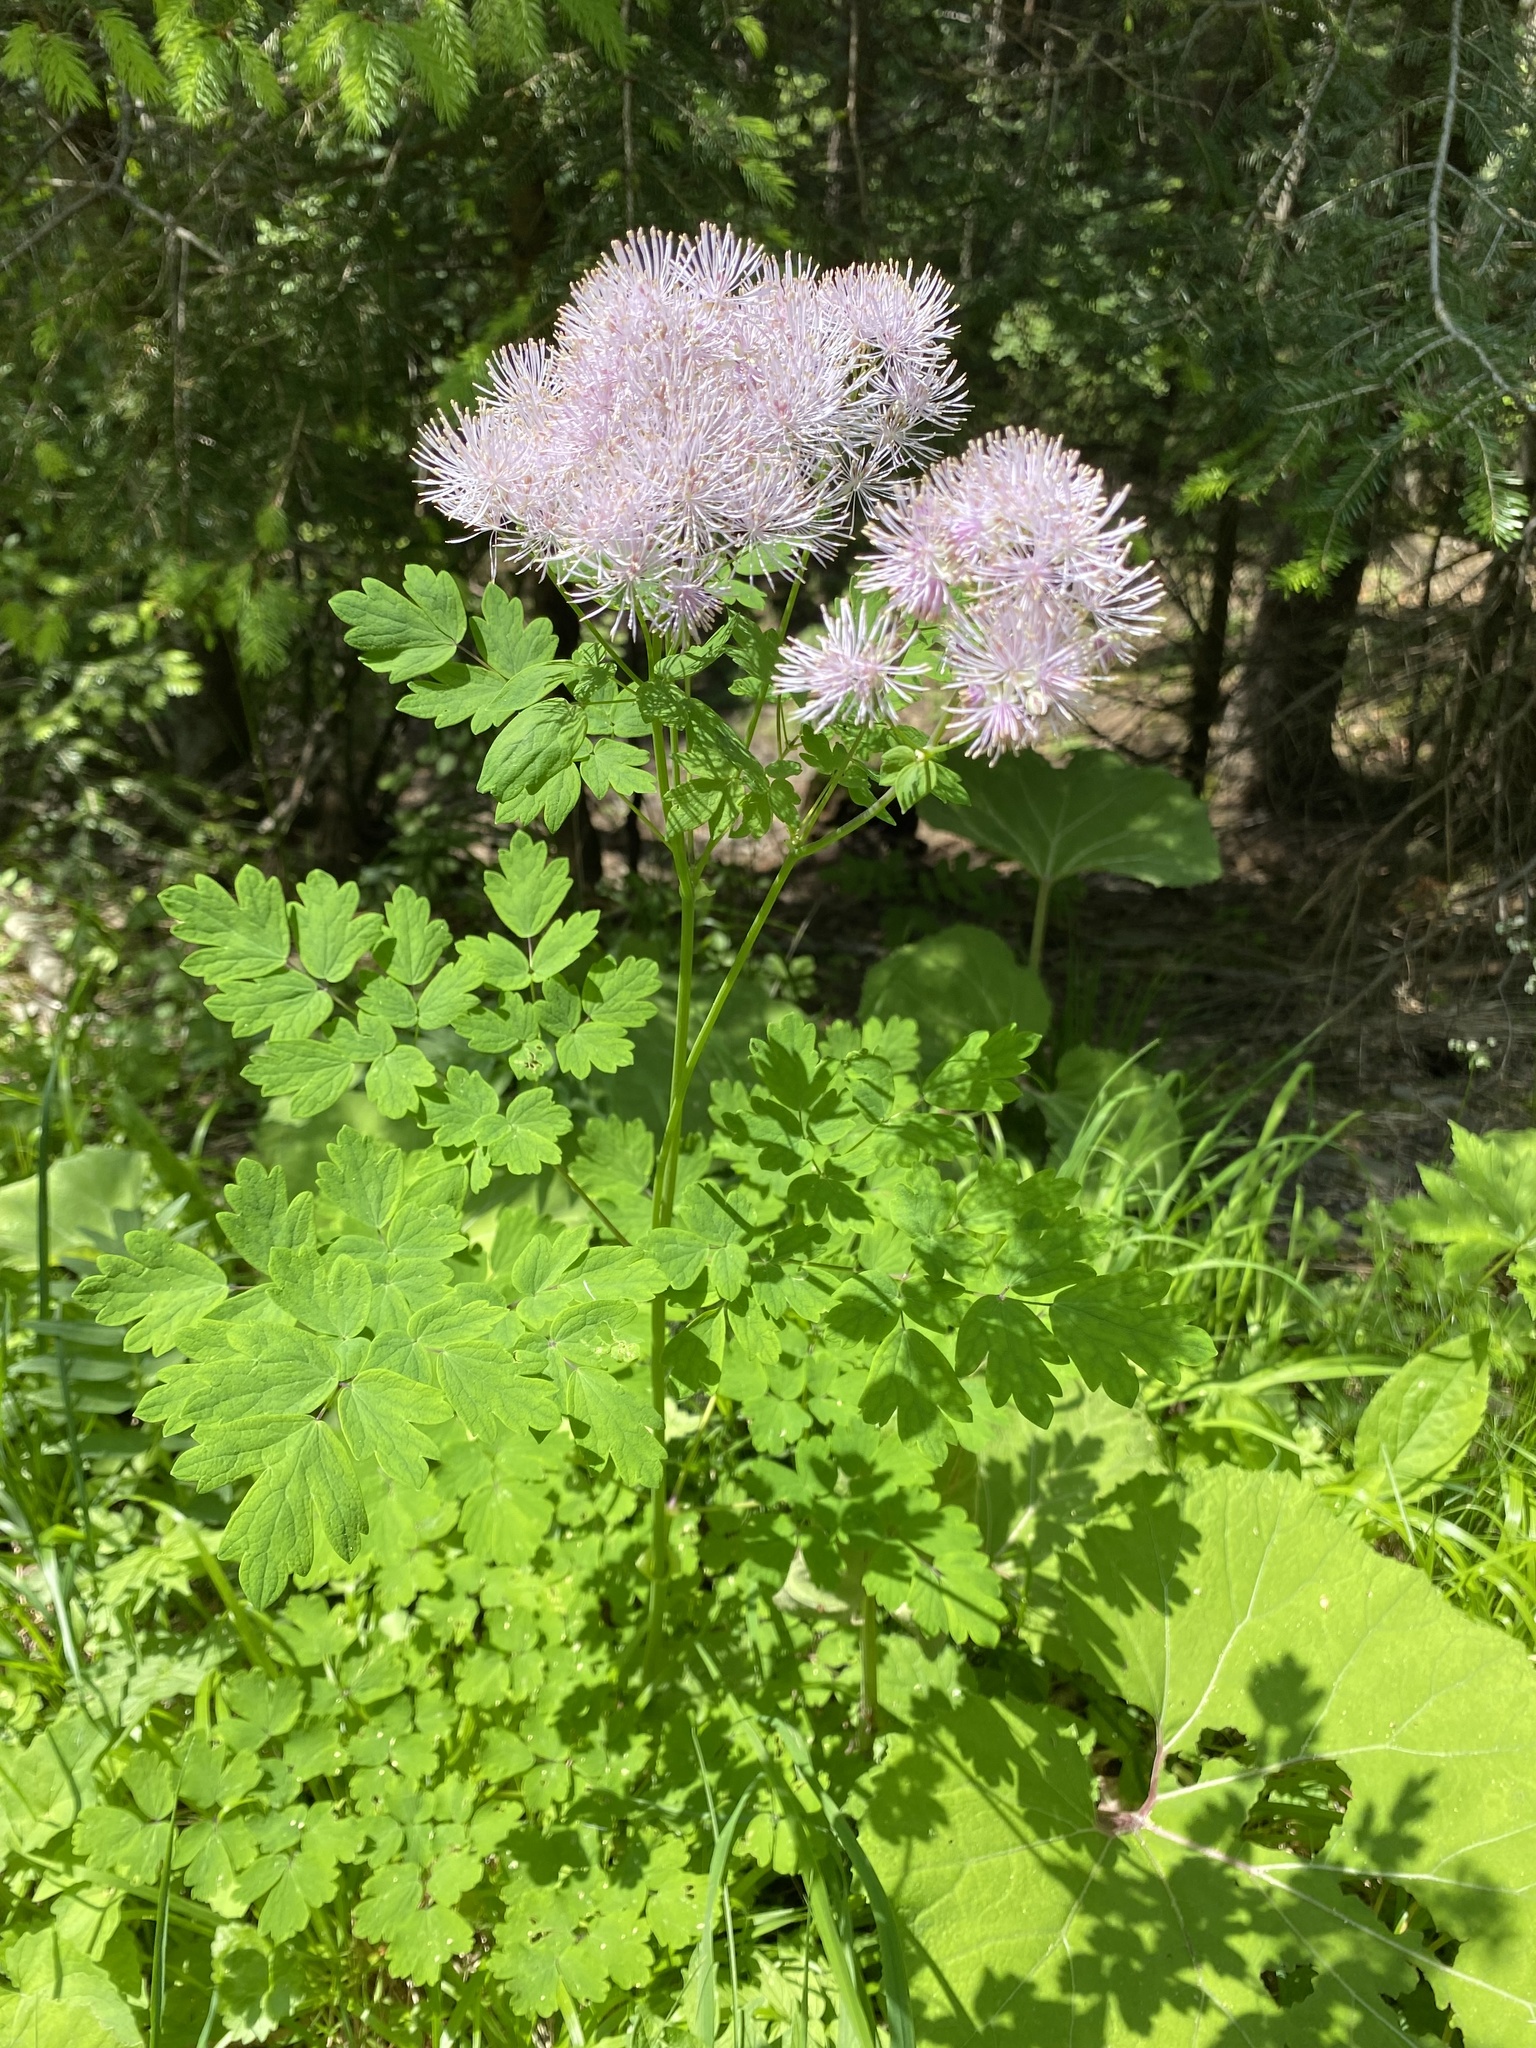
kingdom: Plantae
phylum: Tracheophyta
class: Magnoliopsida
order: Ranunculales
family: Ranunculaceae
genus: Thalictrum
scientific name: Thalictrum aquilegiifolium
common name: French meadow-rue
